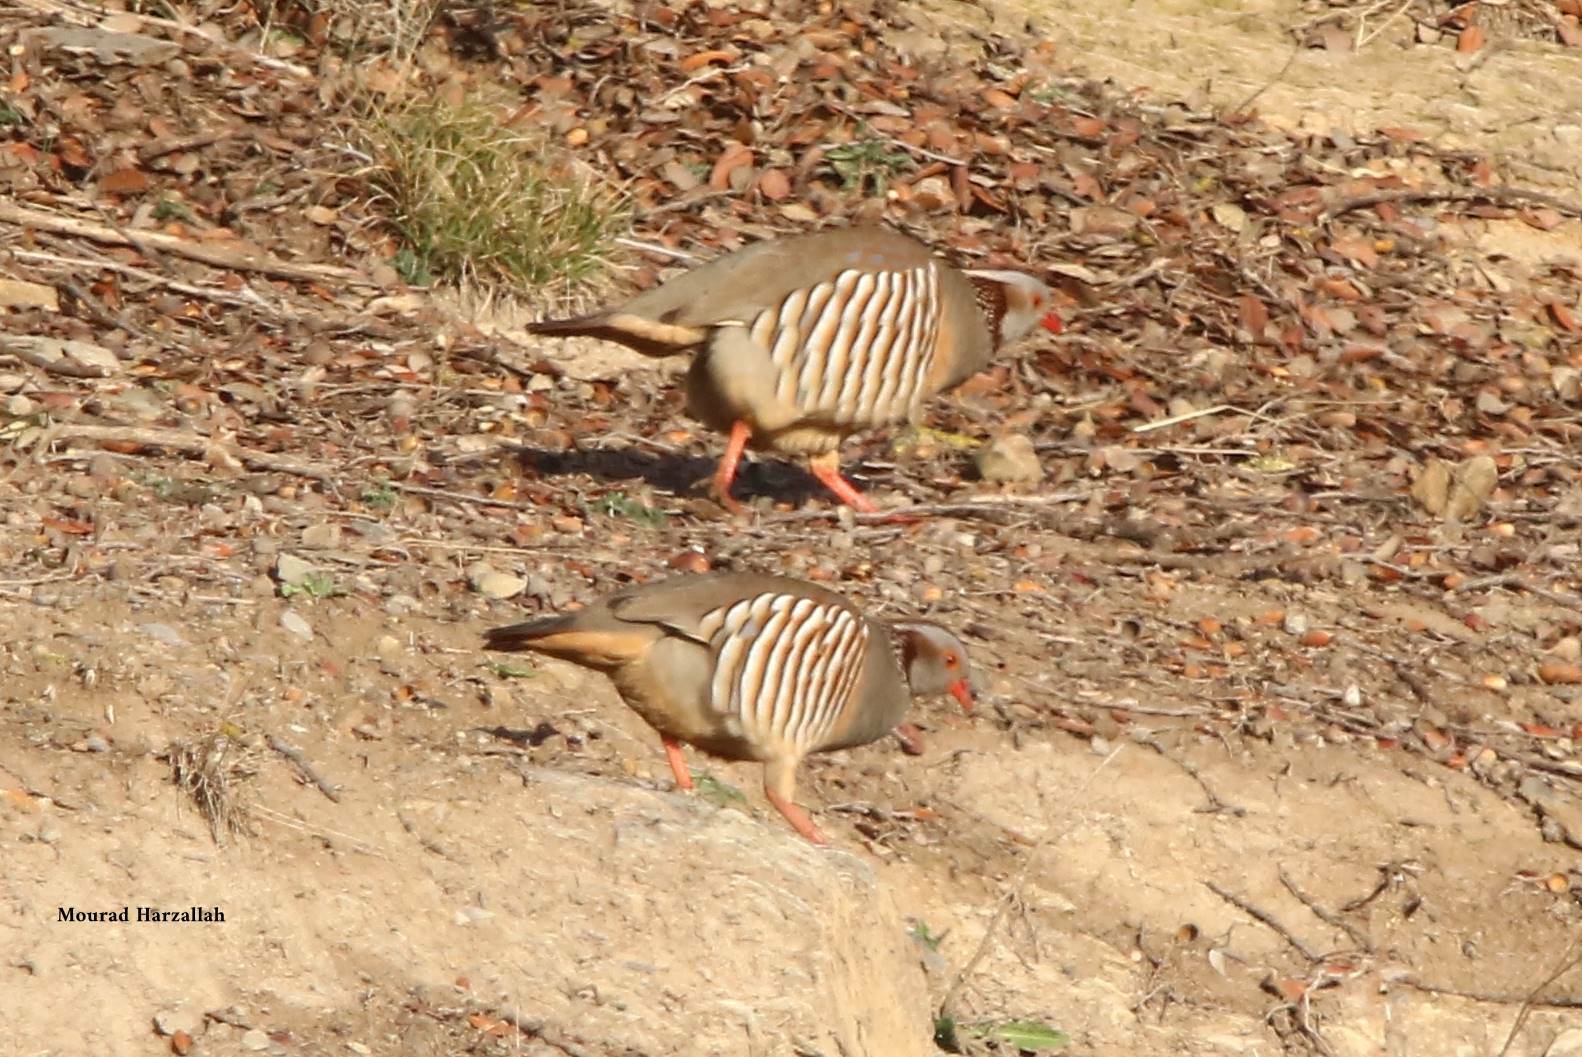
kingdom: Animalia
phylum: Chordata
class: Aves
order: Galliformes
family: Phasianidae
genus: Alectoris
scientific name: Alectoris barbara
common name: Barbary partridge
